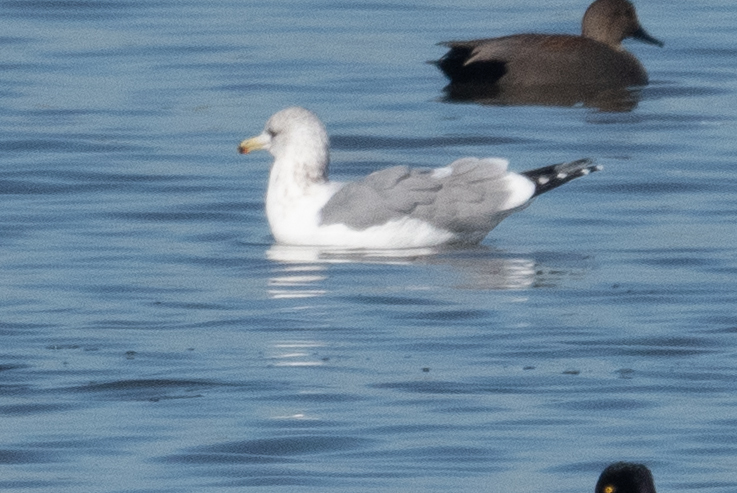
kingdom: Animalia
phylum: Chordata
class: Aves
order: Charadriiformes
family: Laridae
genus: Larus
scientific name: Larus californicus
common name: California gull
